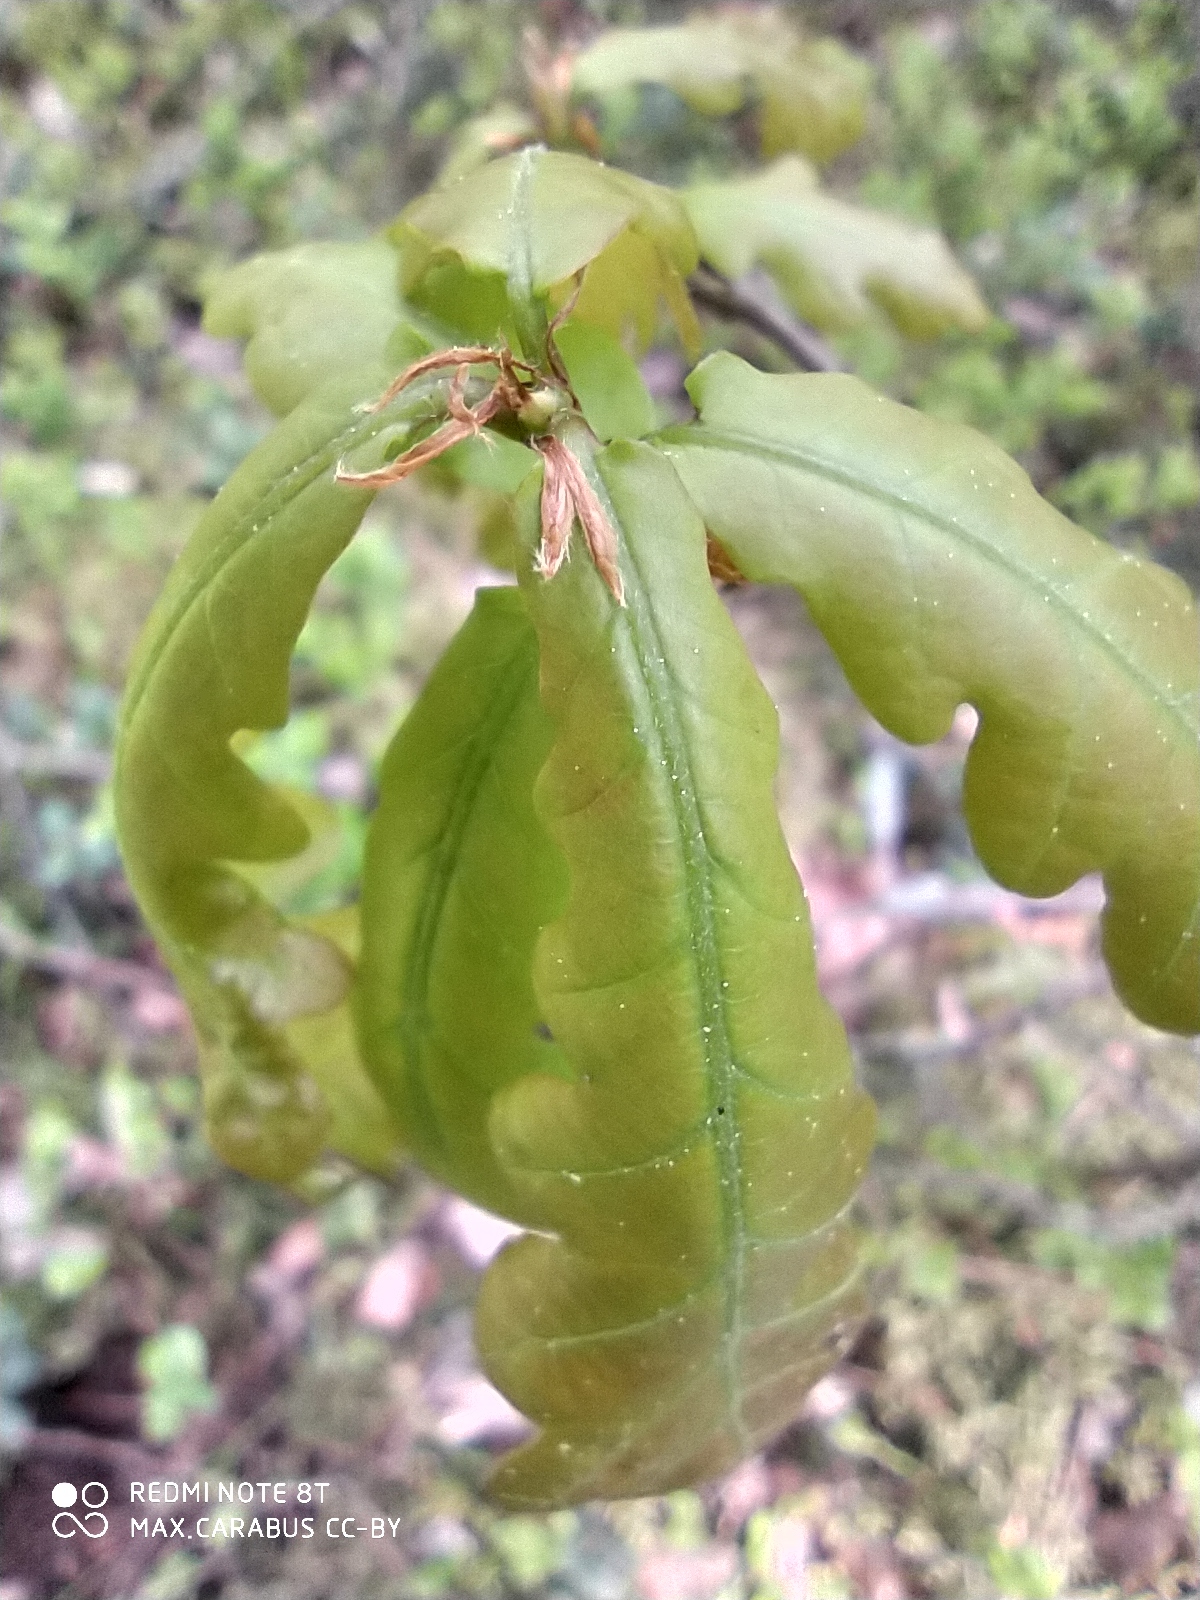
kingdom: Plantae
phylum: Tracheophyta
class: Magnoliopsida
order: Fagales
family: Fagaceae
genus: Quercus
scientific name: Quercus robur
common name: Pedunculate oak
